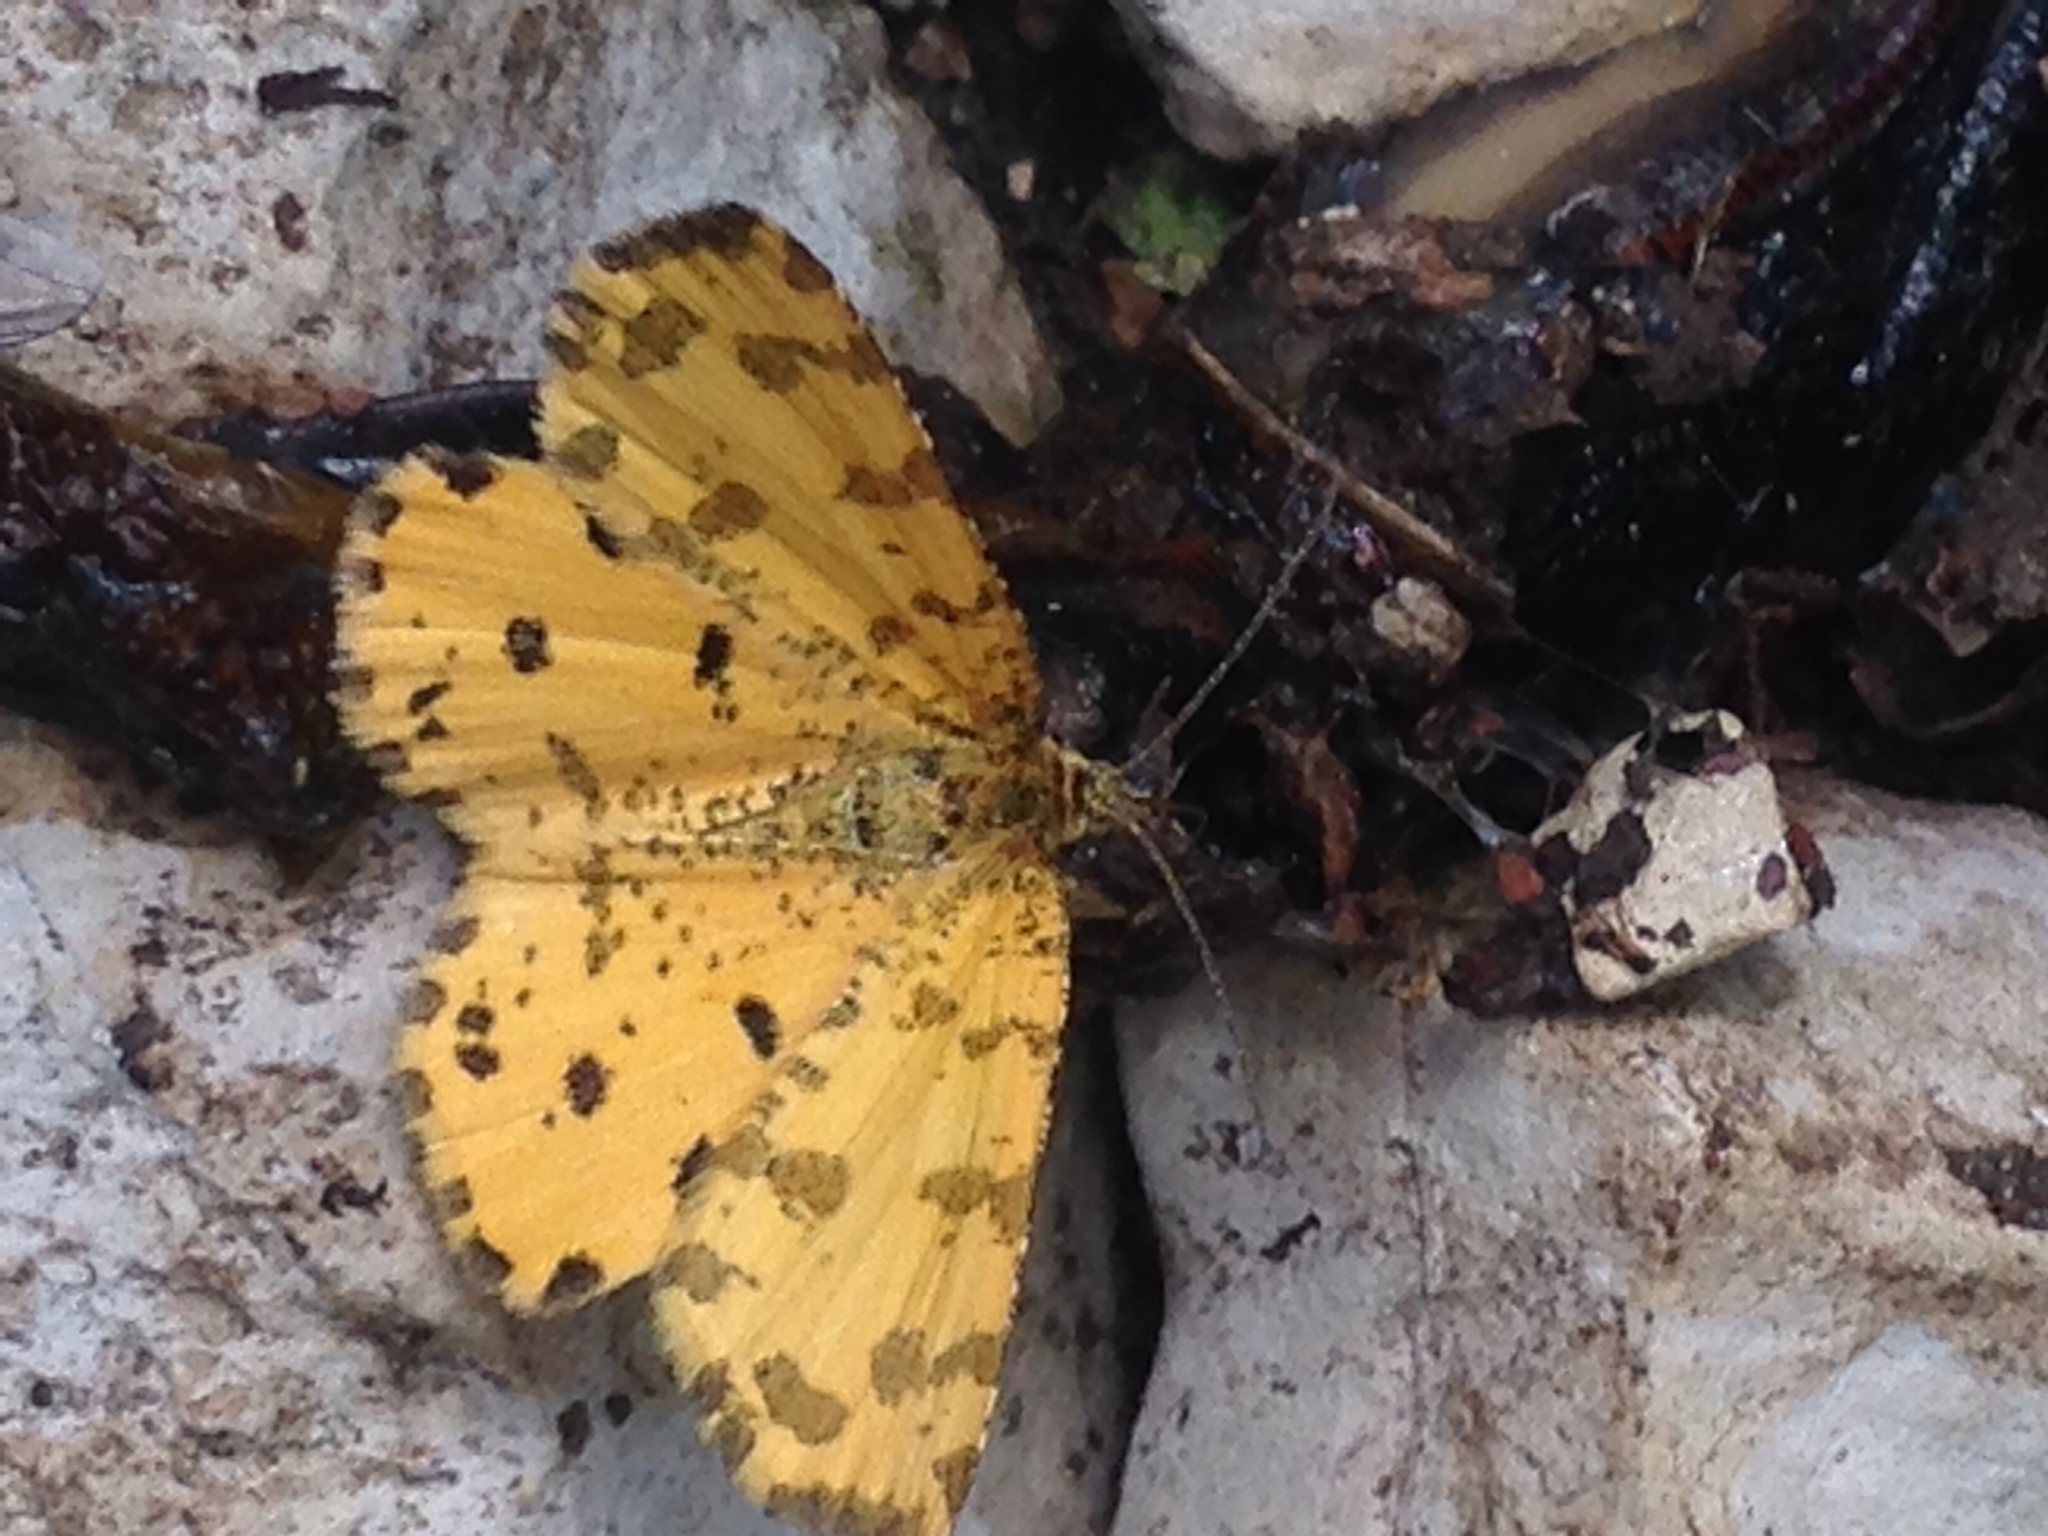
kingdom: Animalia
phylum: Arthropoda
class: Insecta
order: Lepidoptera
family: Geometridae
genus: Pseudopanthera
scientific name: Pseudopanthera macularia
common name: Speckled yellow
